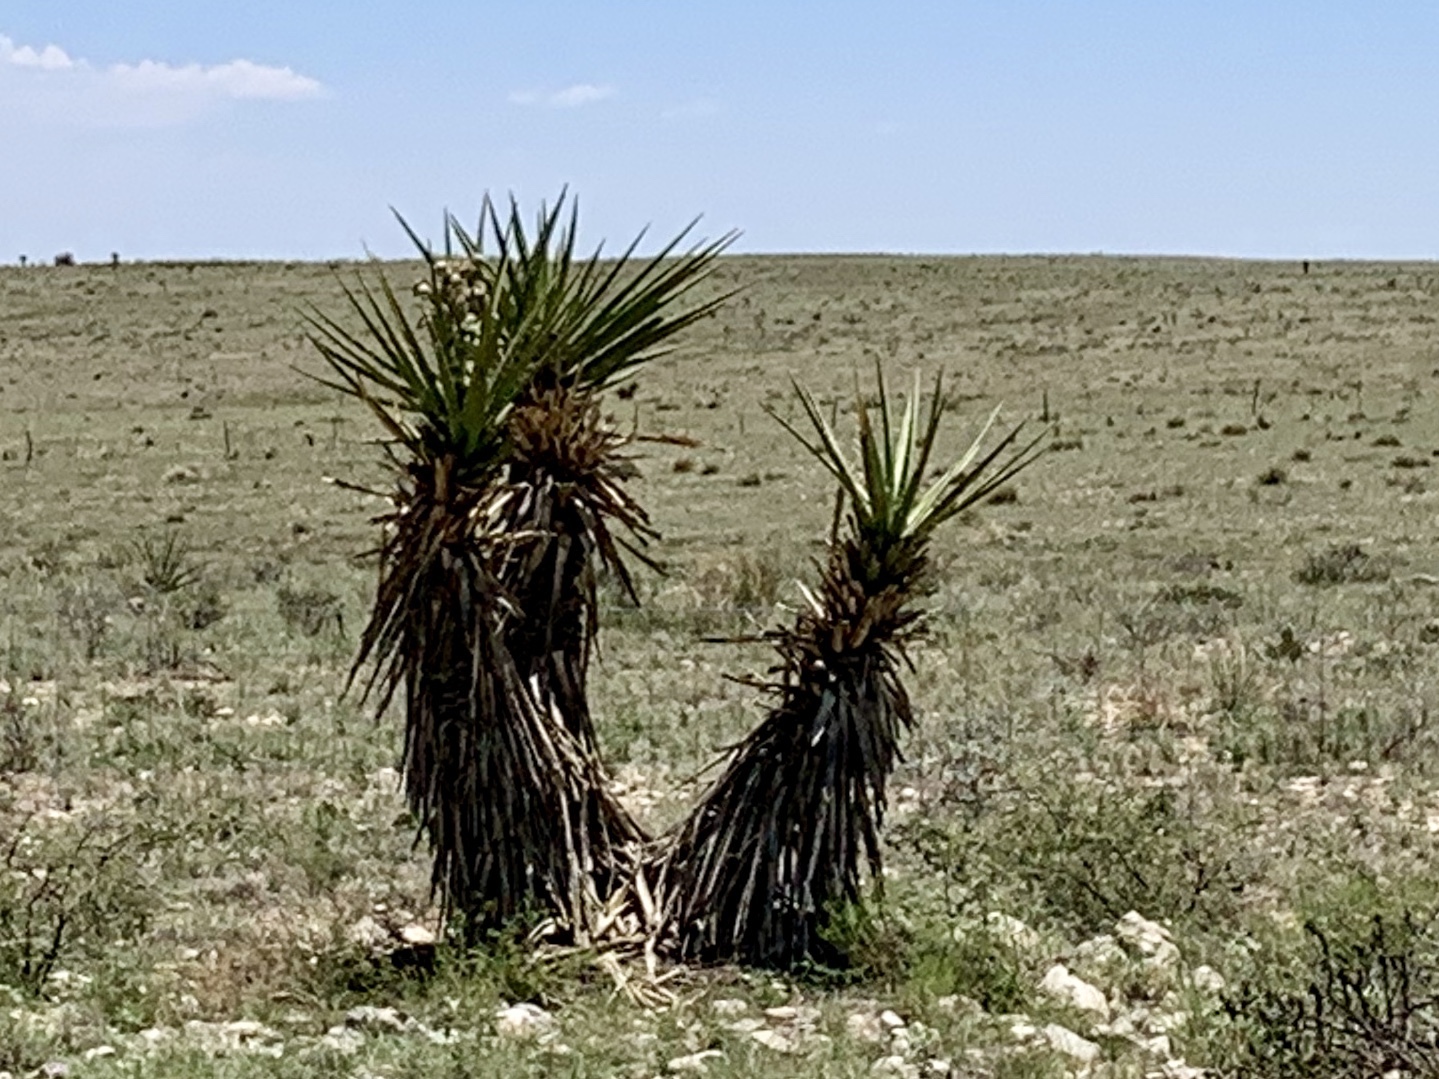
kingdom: Plantae
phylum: Tracheophyta
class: Liliopsida
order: Asparagales
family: Asparagaceae
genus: Yucca
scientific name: Yucca treculiana
